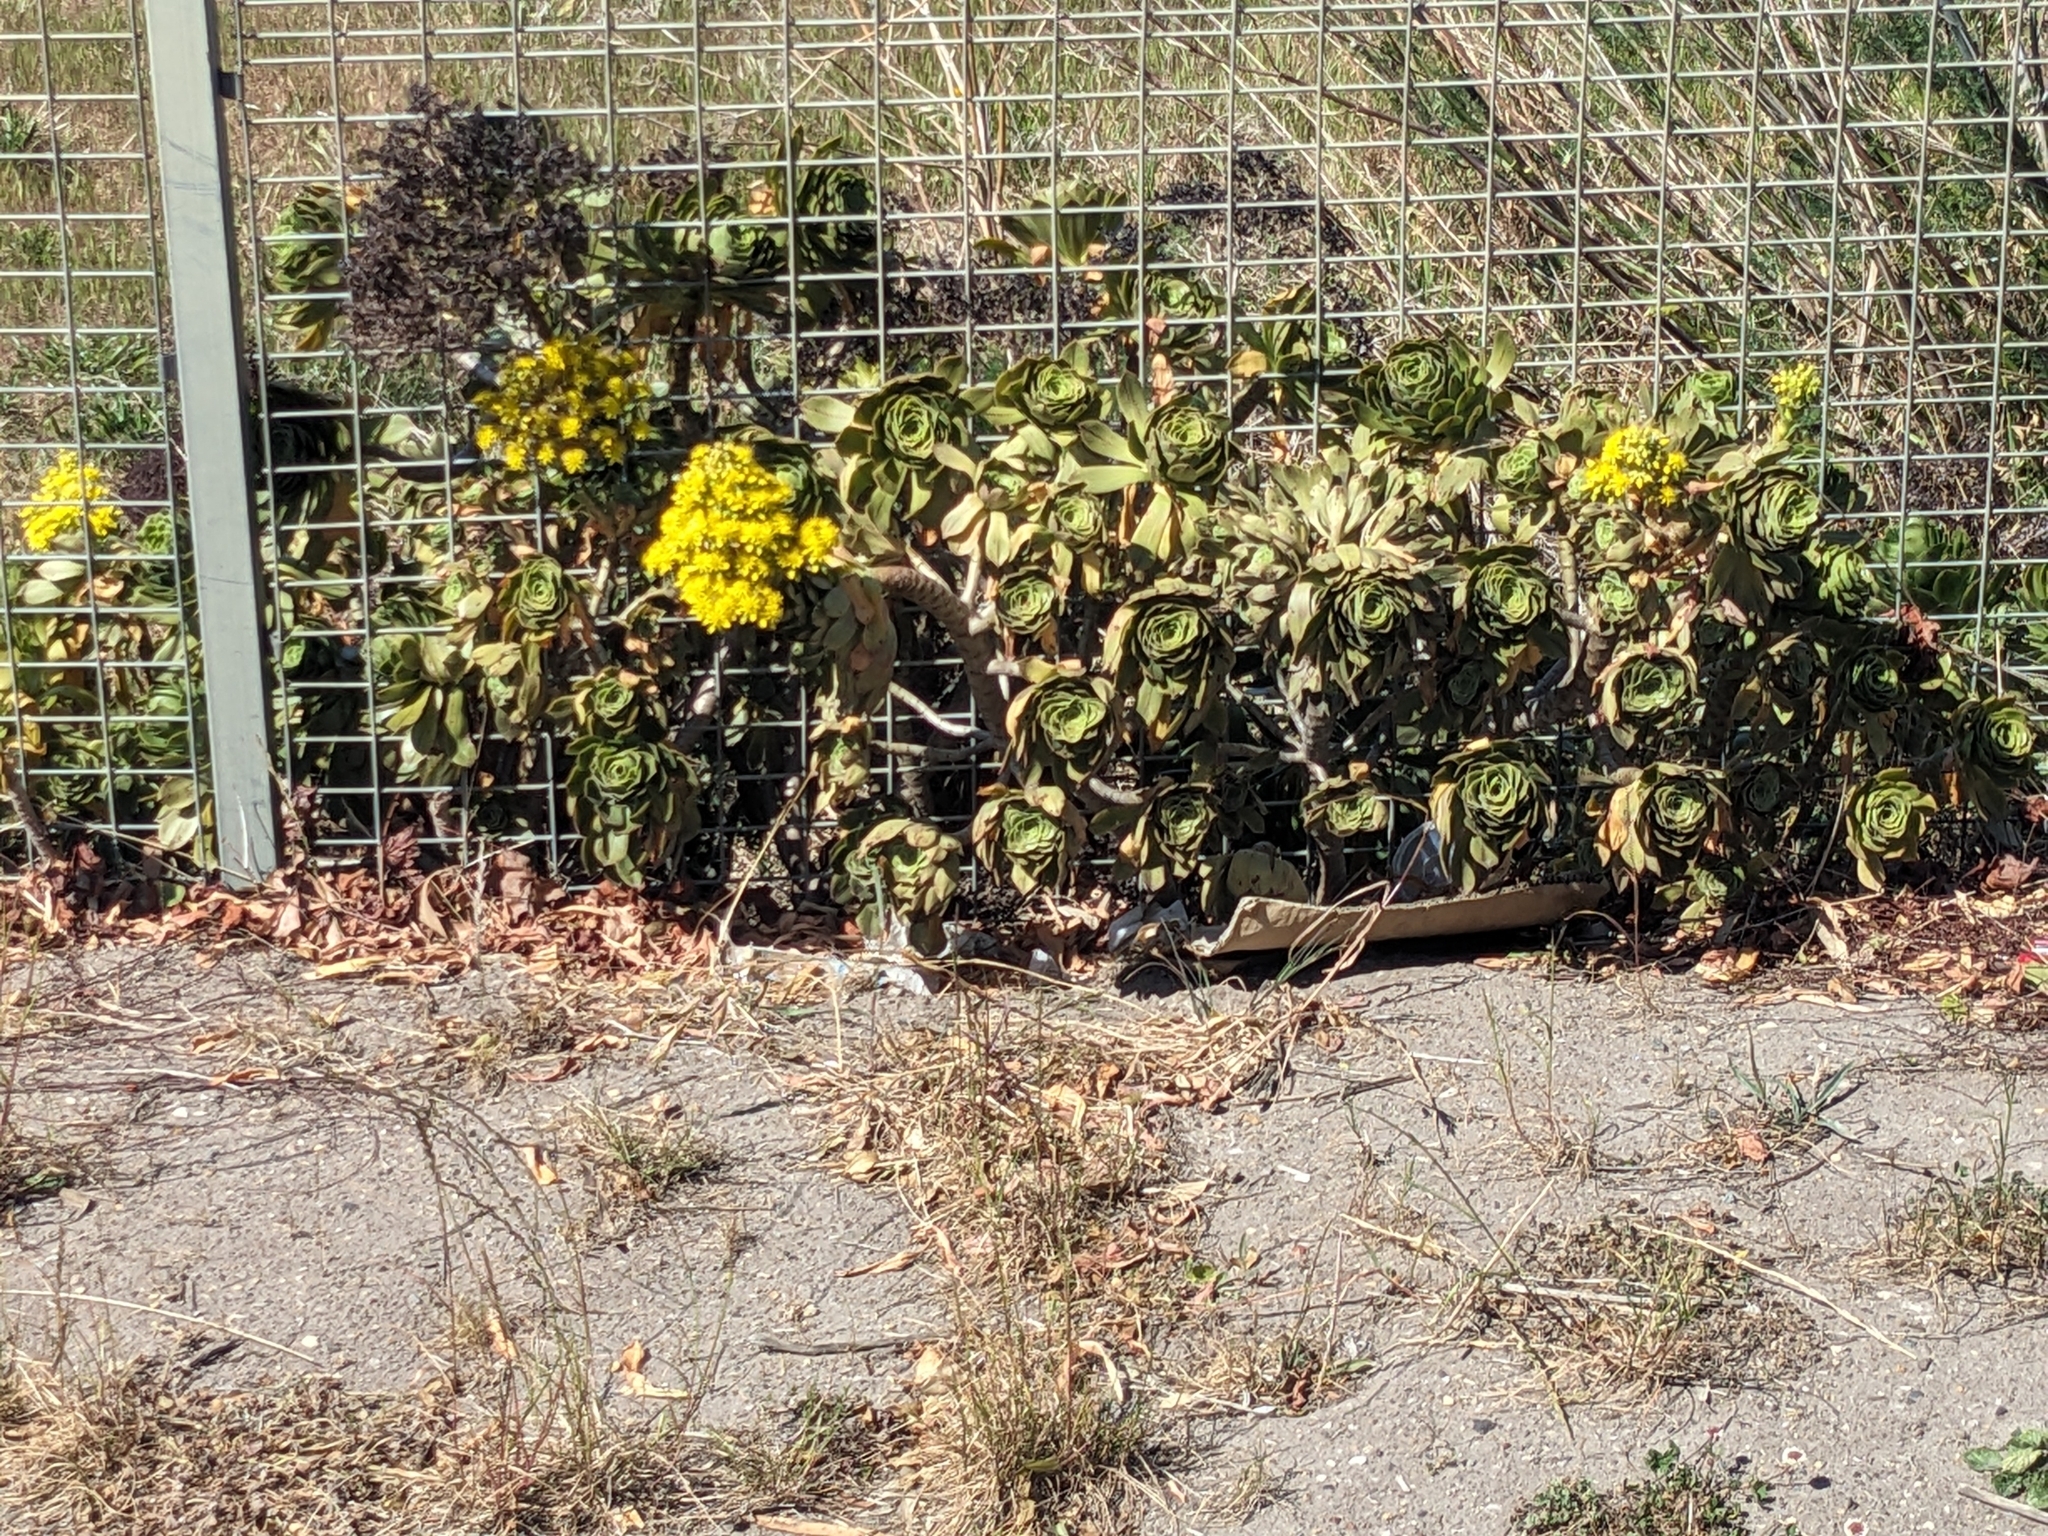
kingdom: Plantae
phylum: Tracheophyta
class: Magnoliopsida
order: Saxifragales
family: Crassulaceae
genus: Aeonium
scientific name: Aeonium arboreum
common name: Tree aeonium
